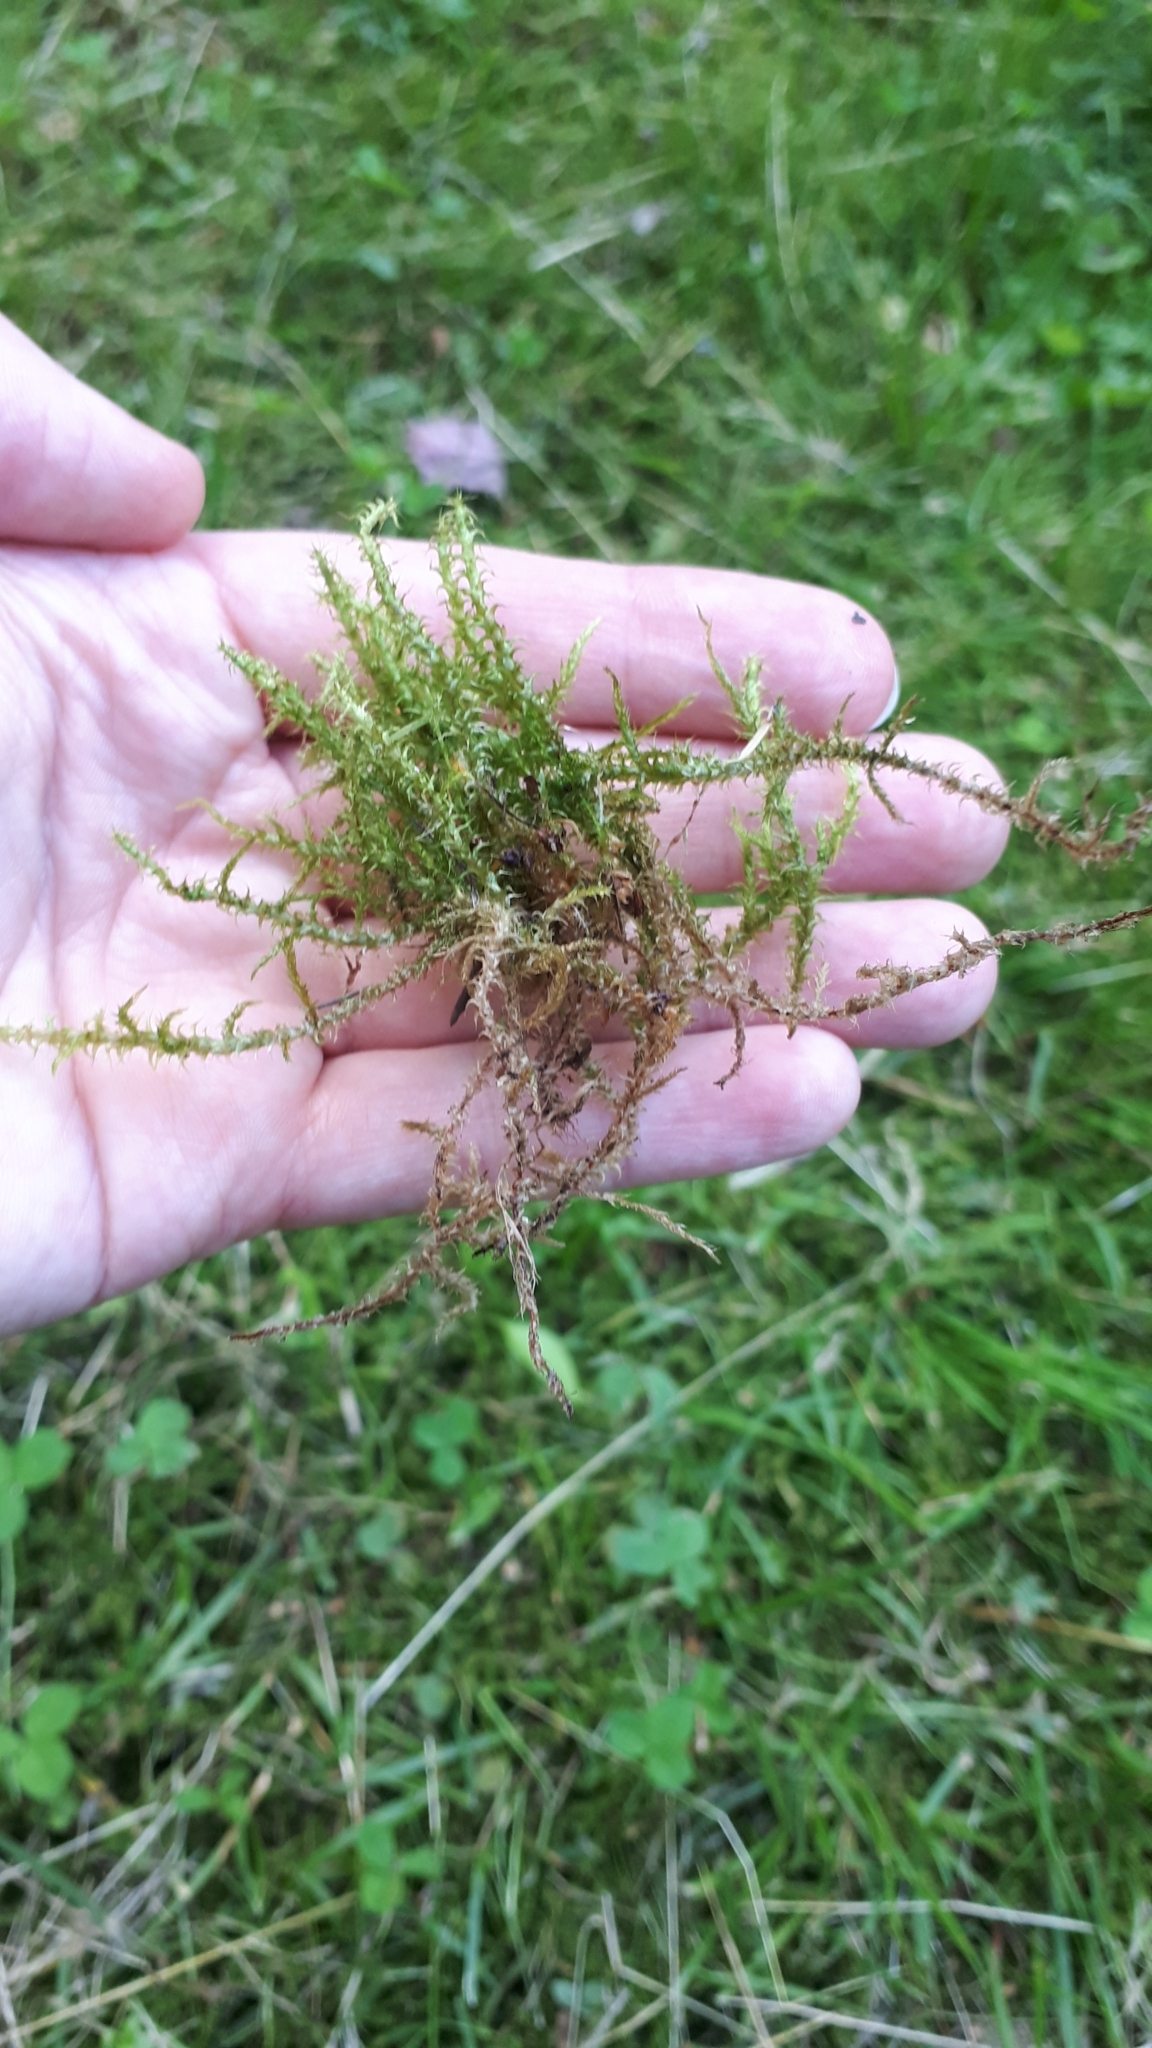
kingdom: Plantae
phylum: Bryophyta
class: Bryopsida
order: Hypnales
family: Hylocomiaceae
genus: Rhytidiadelphus
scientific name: Rhytidiadelphus squarrosus
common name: Springy turf-moss
